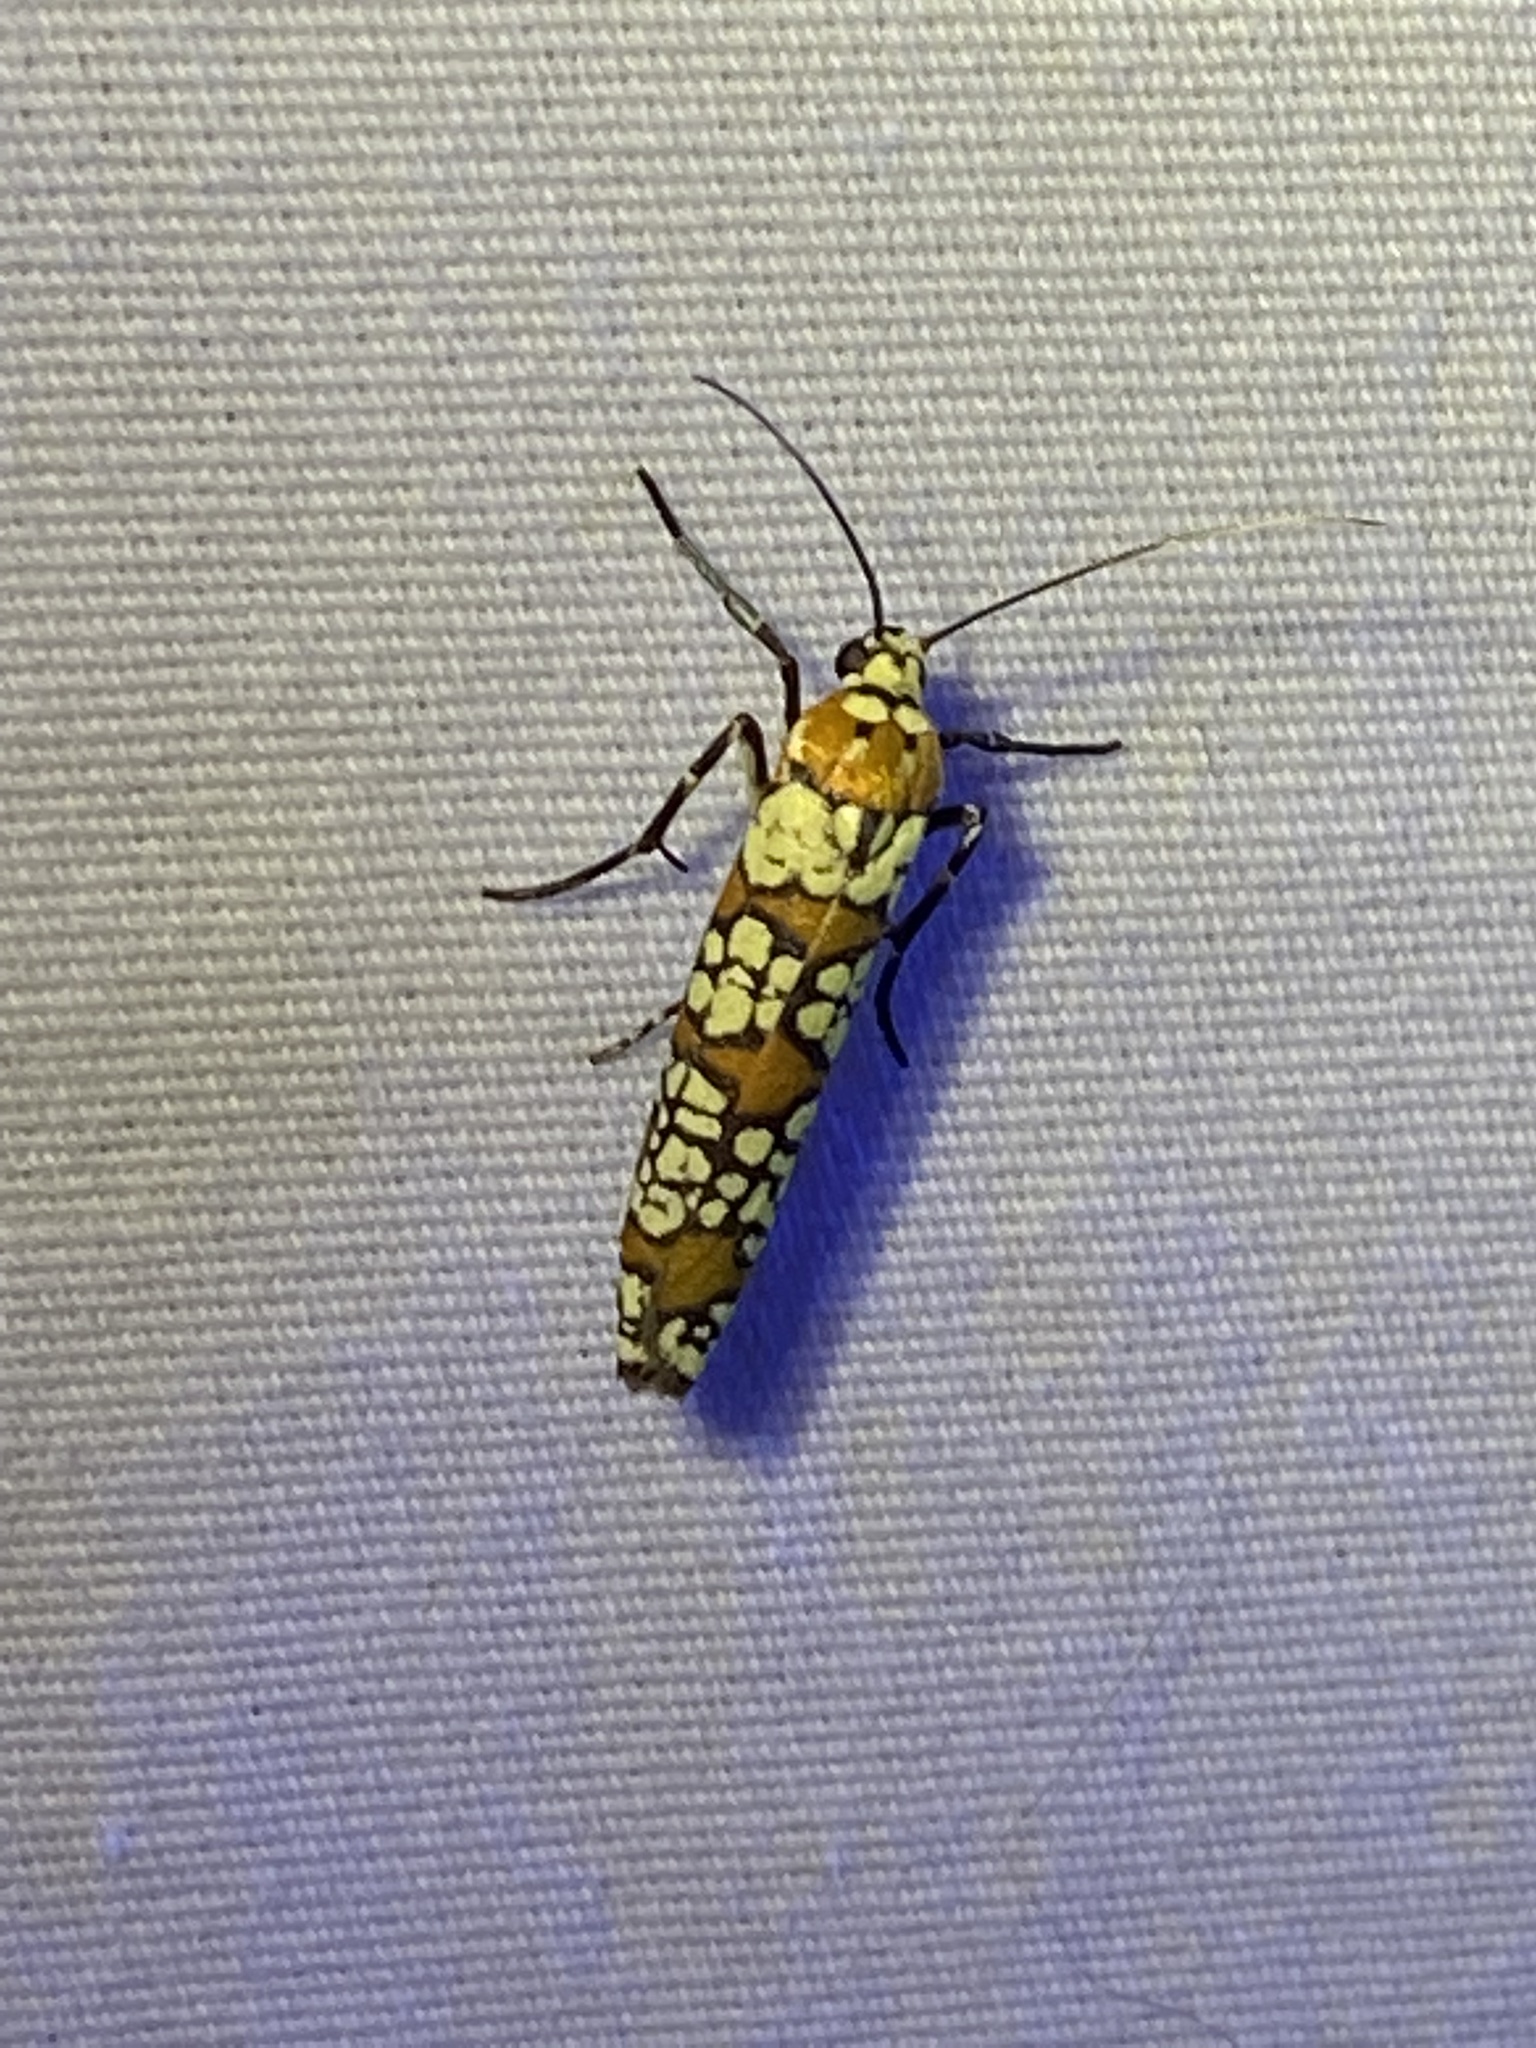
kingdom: Animalia
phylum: Arthropoda
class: Insecta
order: Lepidoptera
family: Attevidae
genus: Atteva
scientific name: Atteva punctella
